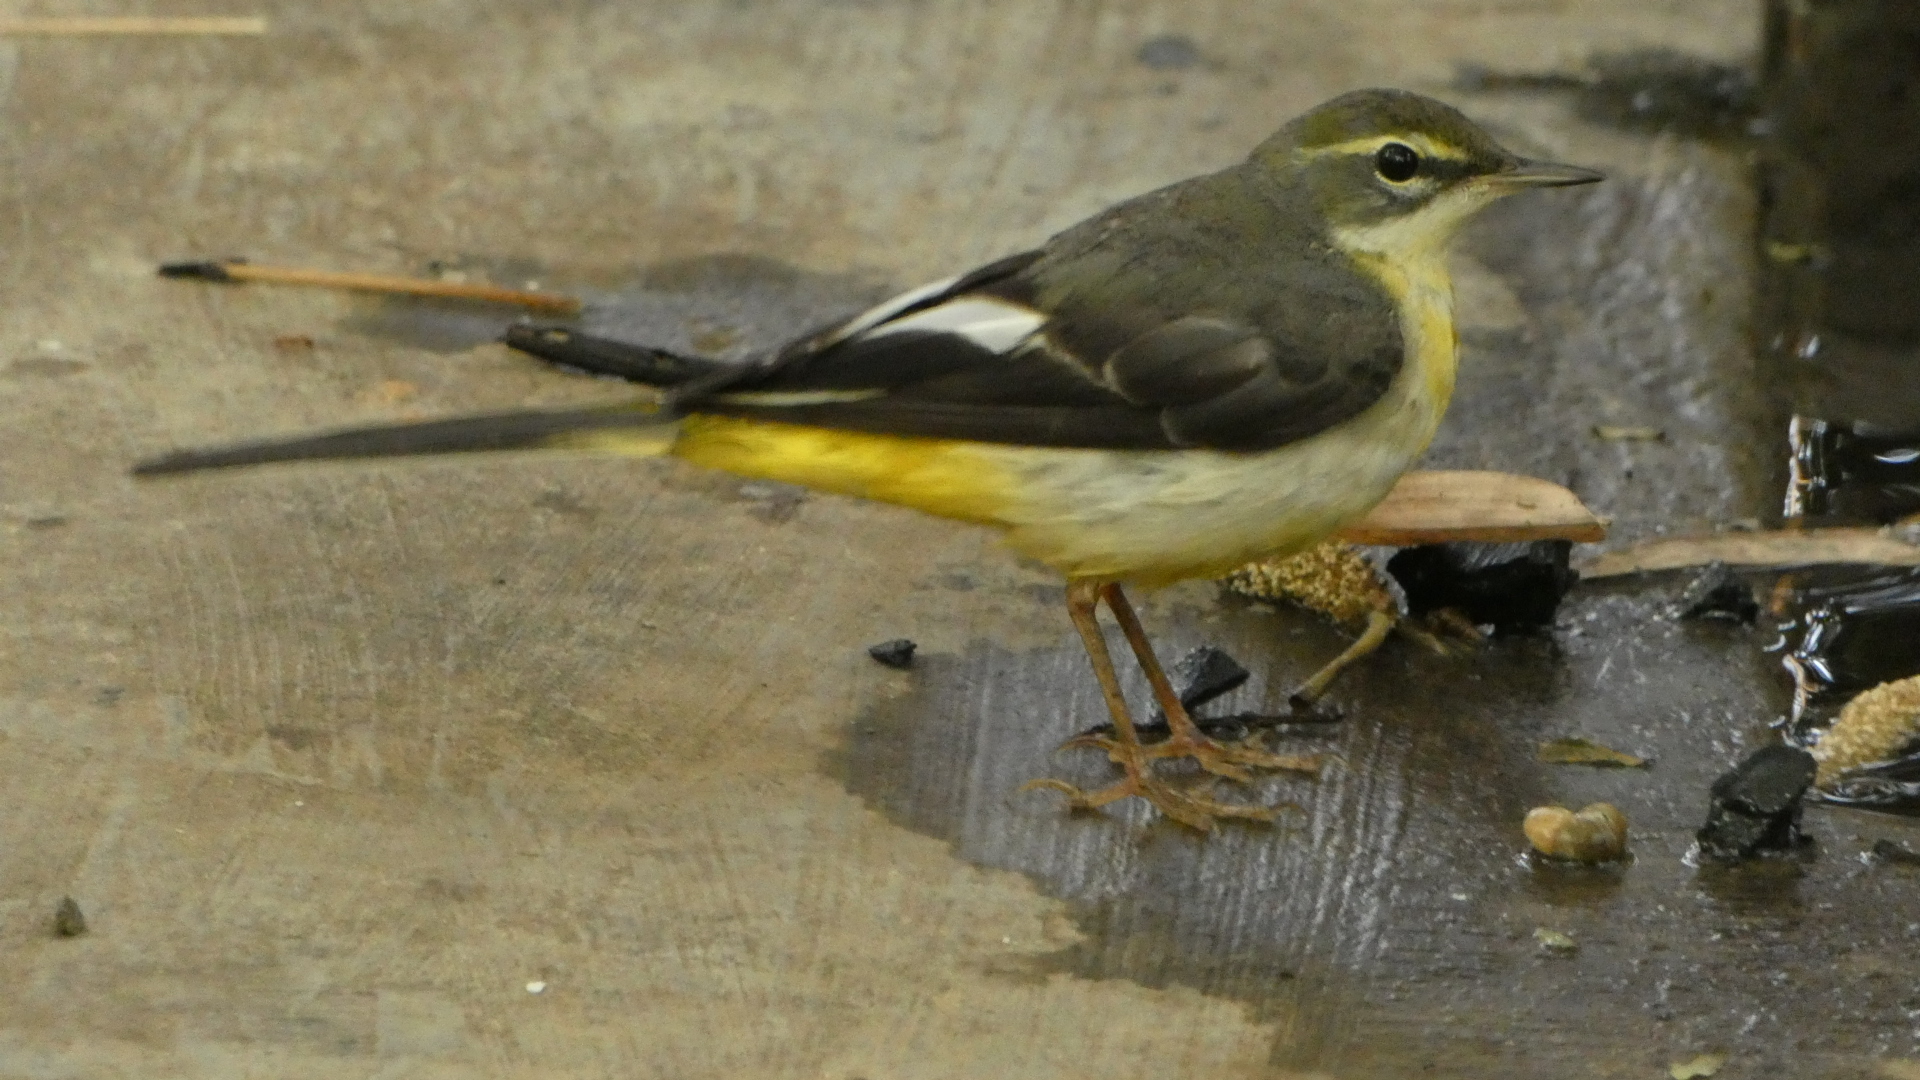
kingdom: Animalia
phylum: Chordata
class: Aves
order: Passeriformes
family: Motacillidae
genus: Motacilla
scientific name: Motacilla cinerea
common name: Grey wagtail
